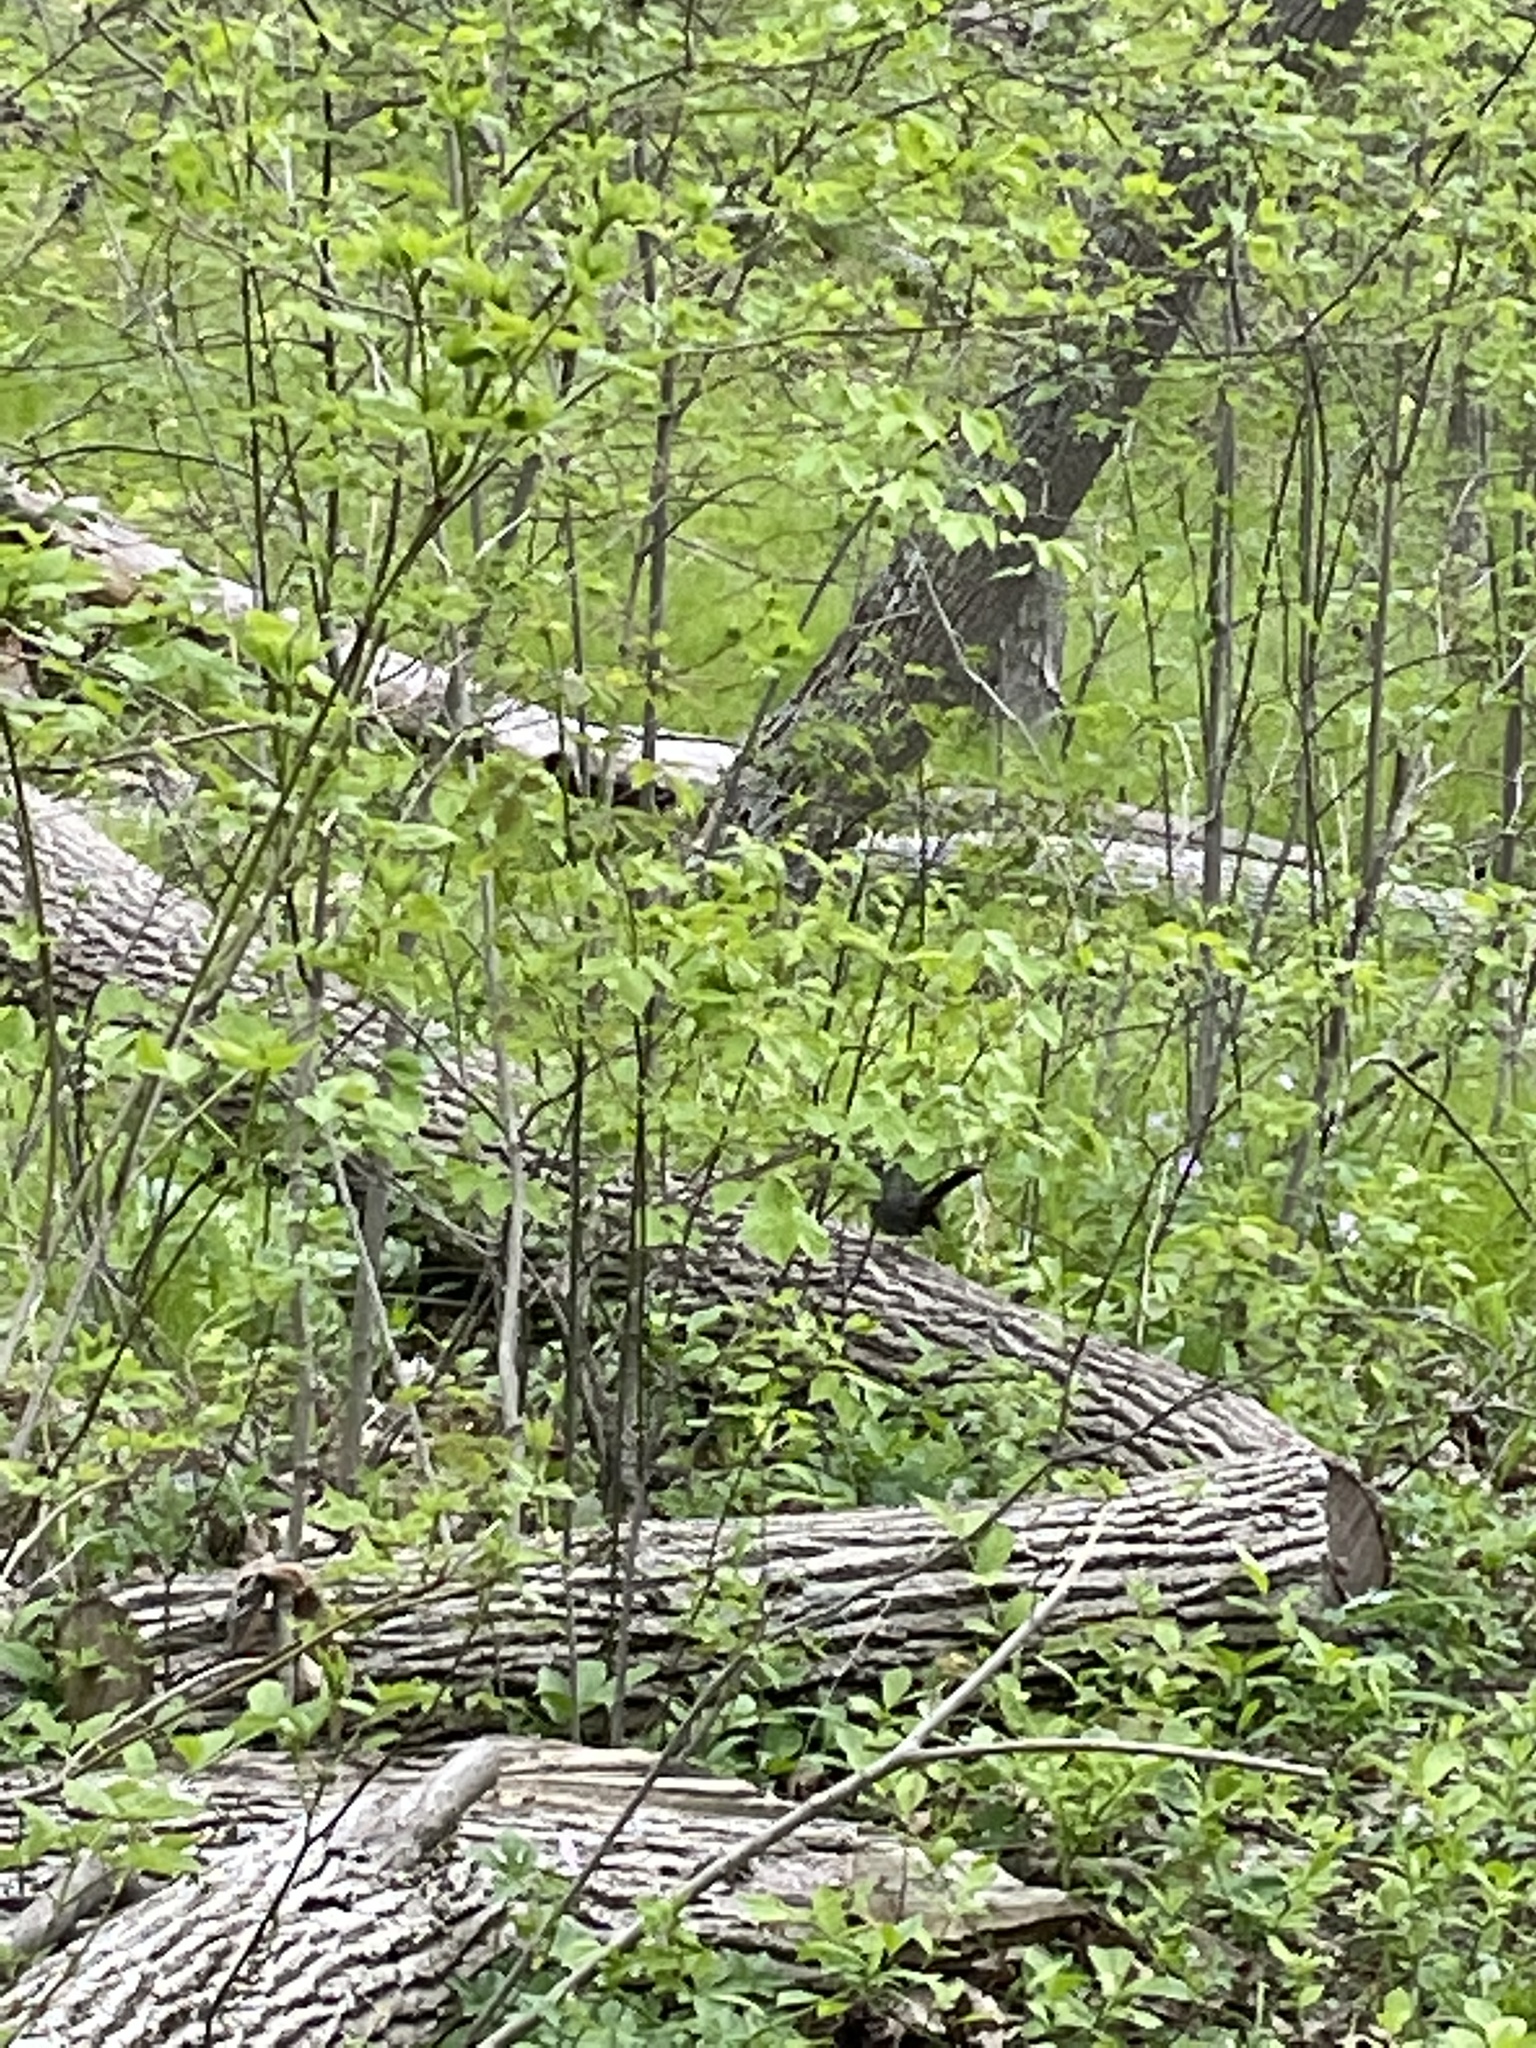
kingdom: Animalia
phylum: Chordata
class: Aves
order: Passeriformes
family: Mimidae
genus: Dumetella
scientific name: Dumetella carolinensis
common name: Gray catbird
